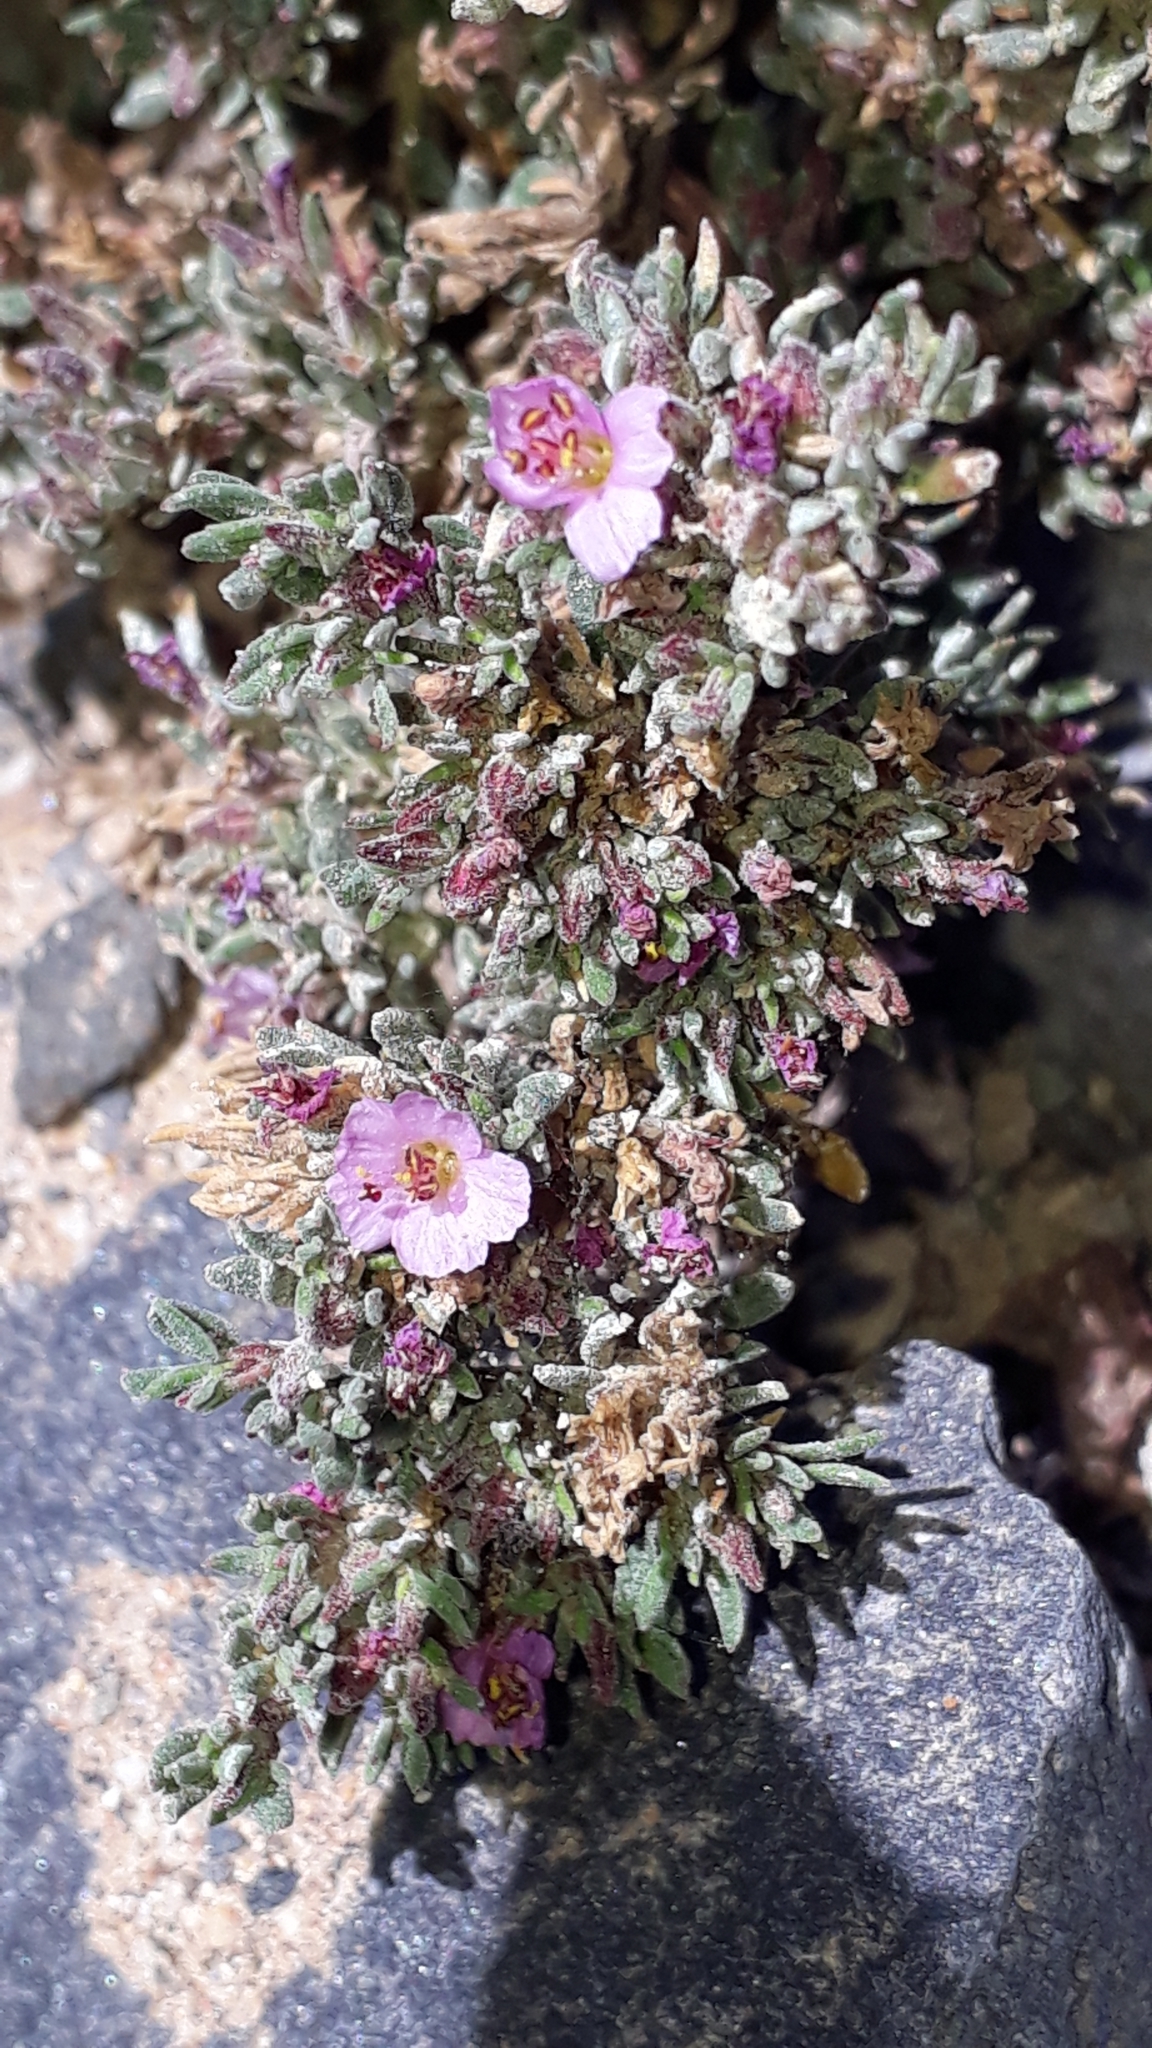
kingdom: Plantae
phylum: Tracheophyta
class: Magnoliopsida
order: Caryophyllales
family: Frankeniaceae
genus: Frankenia
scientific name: Frankenia capitata
